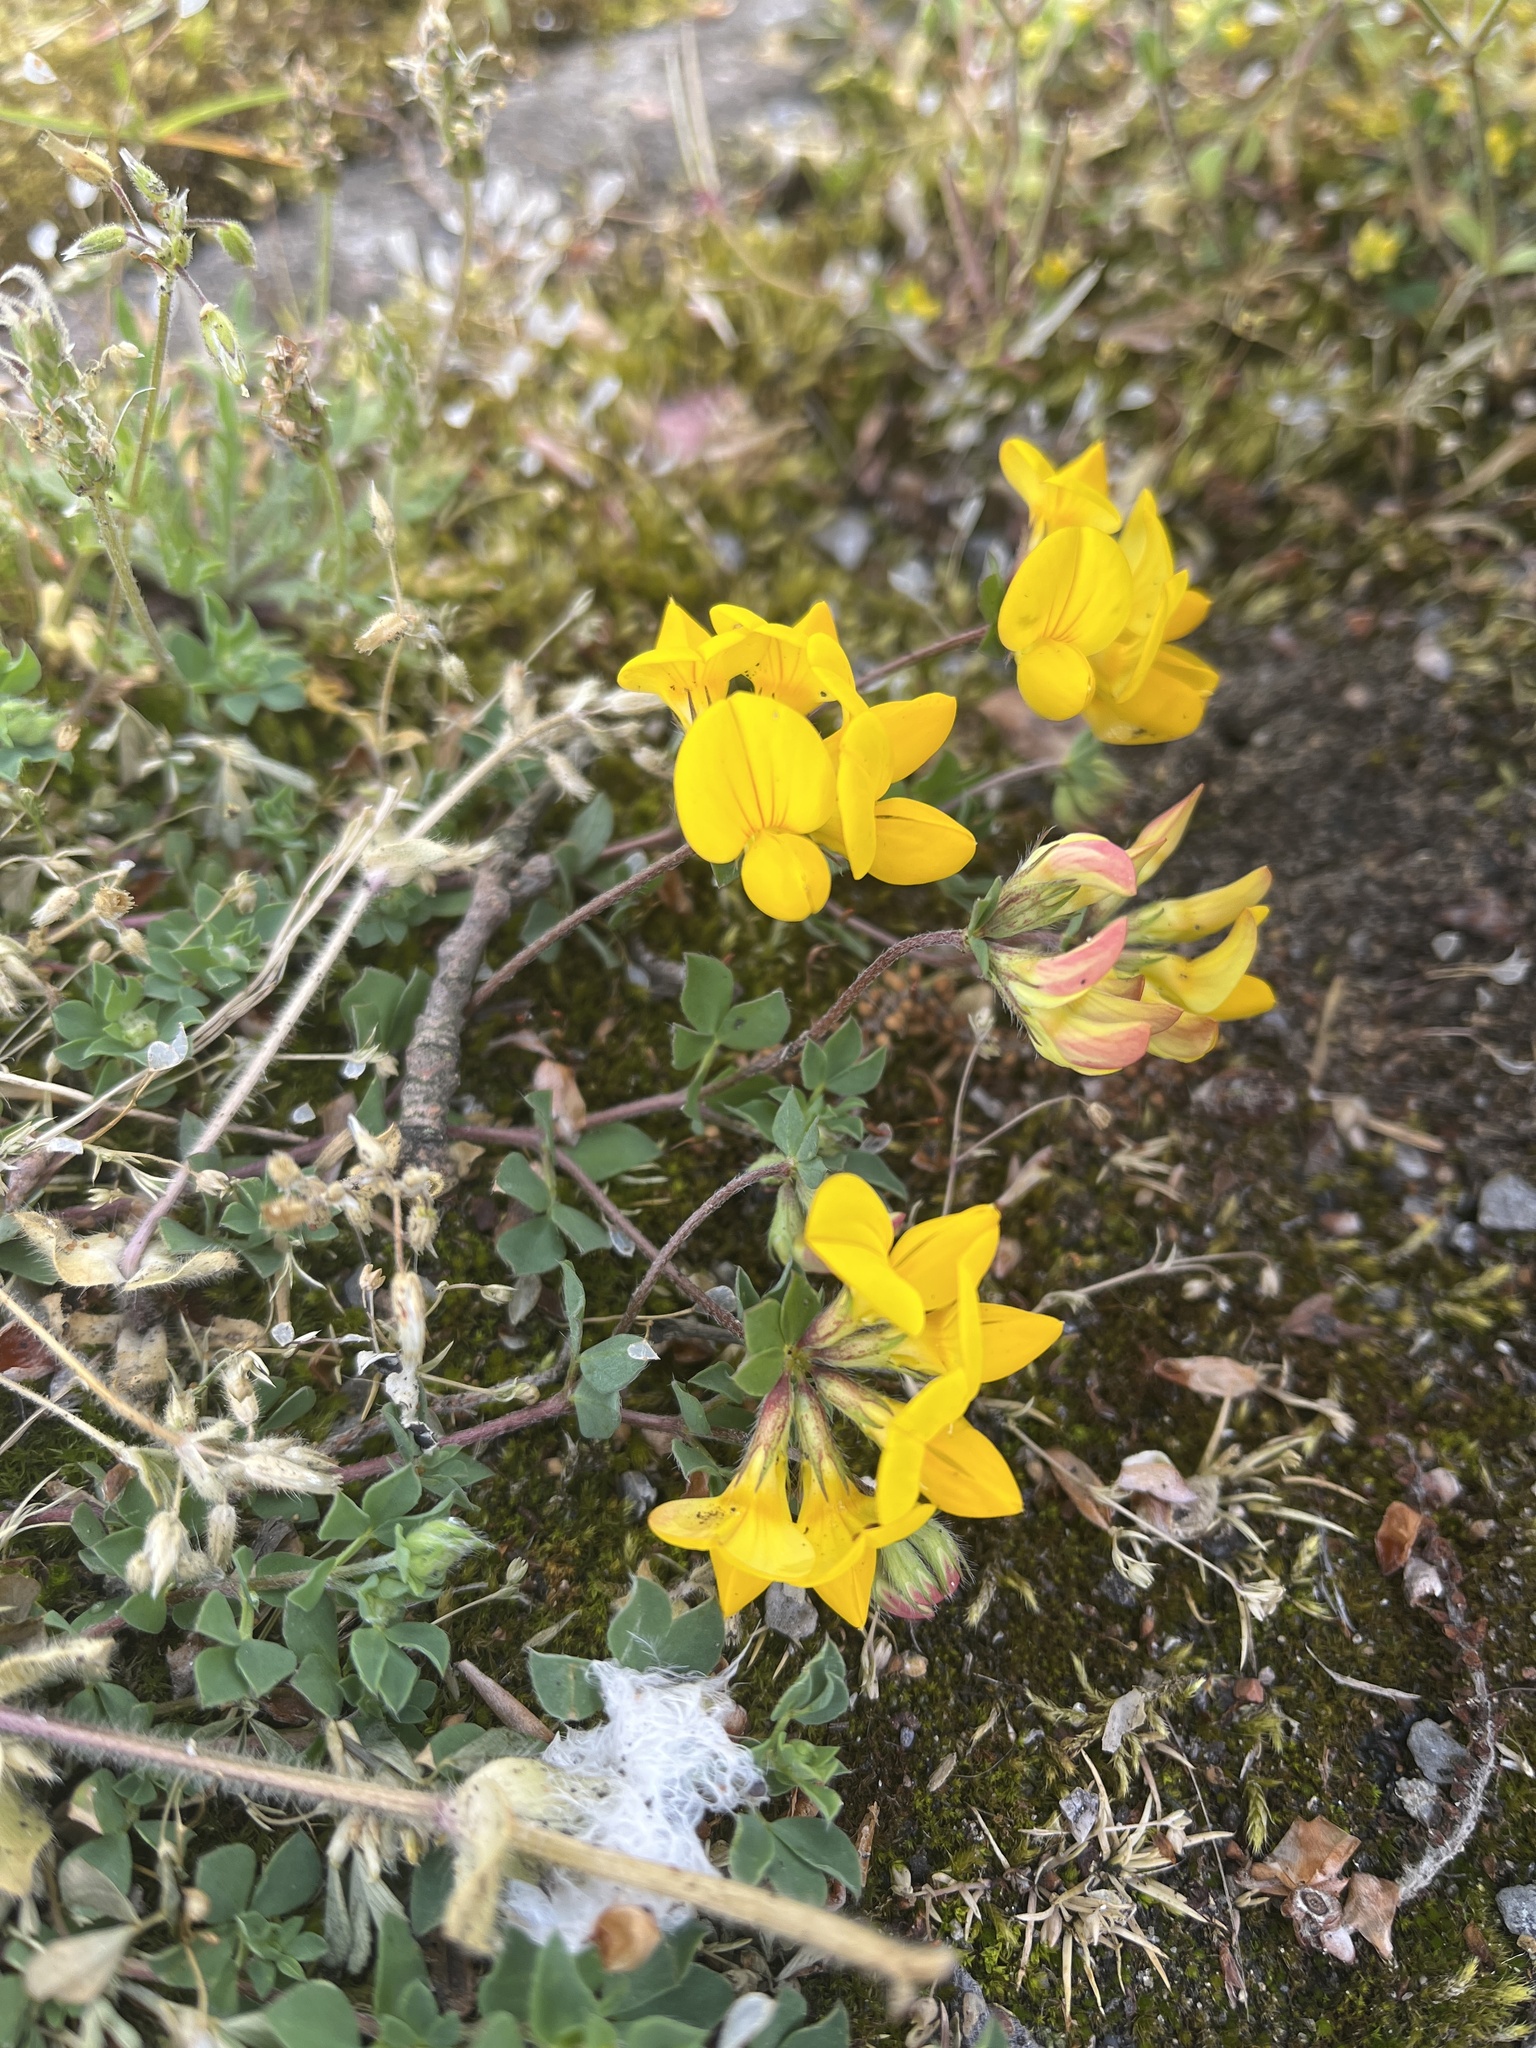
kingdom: Plantae
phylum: Tracheophyta
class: Magnoliopsida
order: Fabales
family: Fabaceae
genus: Lotus
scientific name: Lotus corniculatus
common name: Common bird's-foot-trefoil
